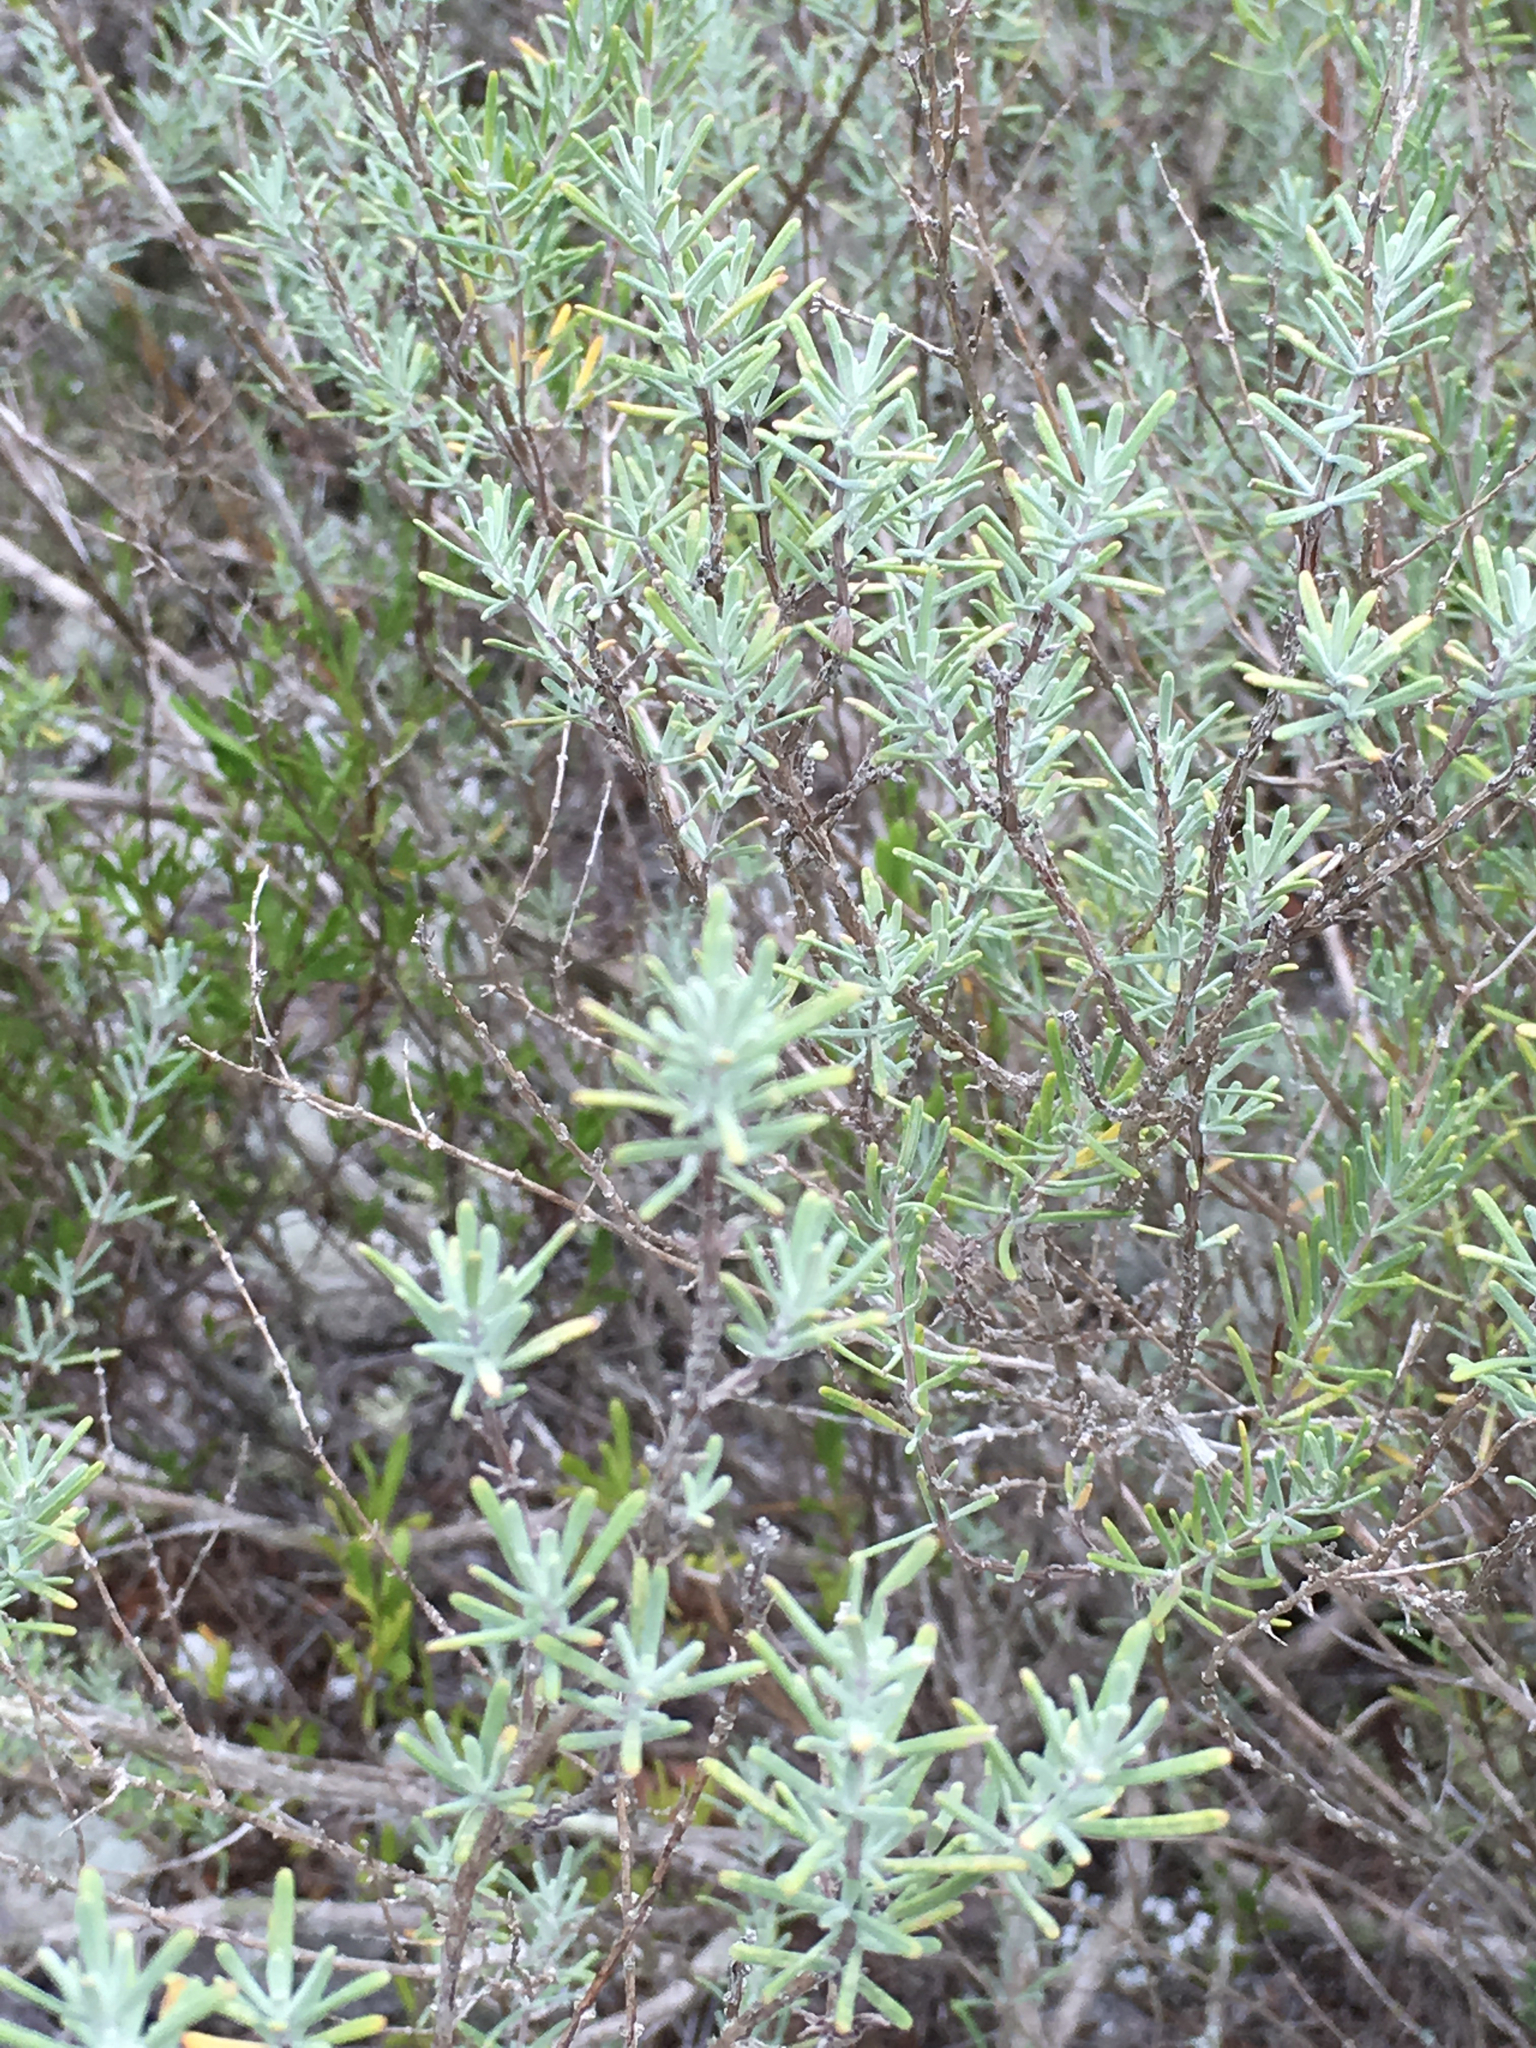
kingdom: Plantae
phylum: Tracheophyta
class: Magnoliopsida
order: Lamiales
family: Lamiaceae
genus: Conradina
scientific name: Conradina canescens
